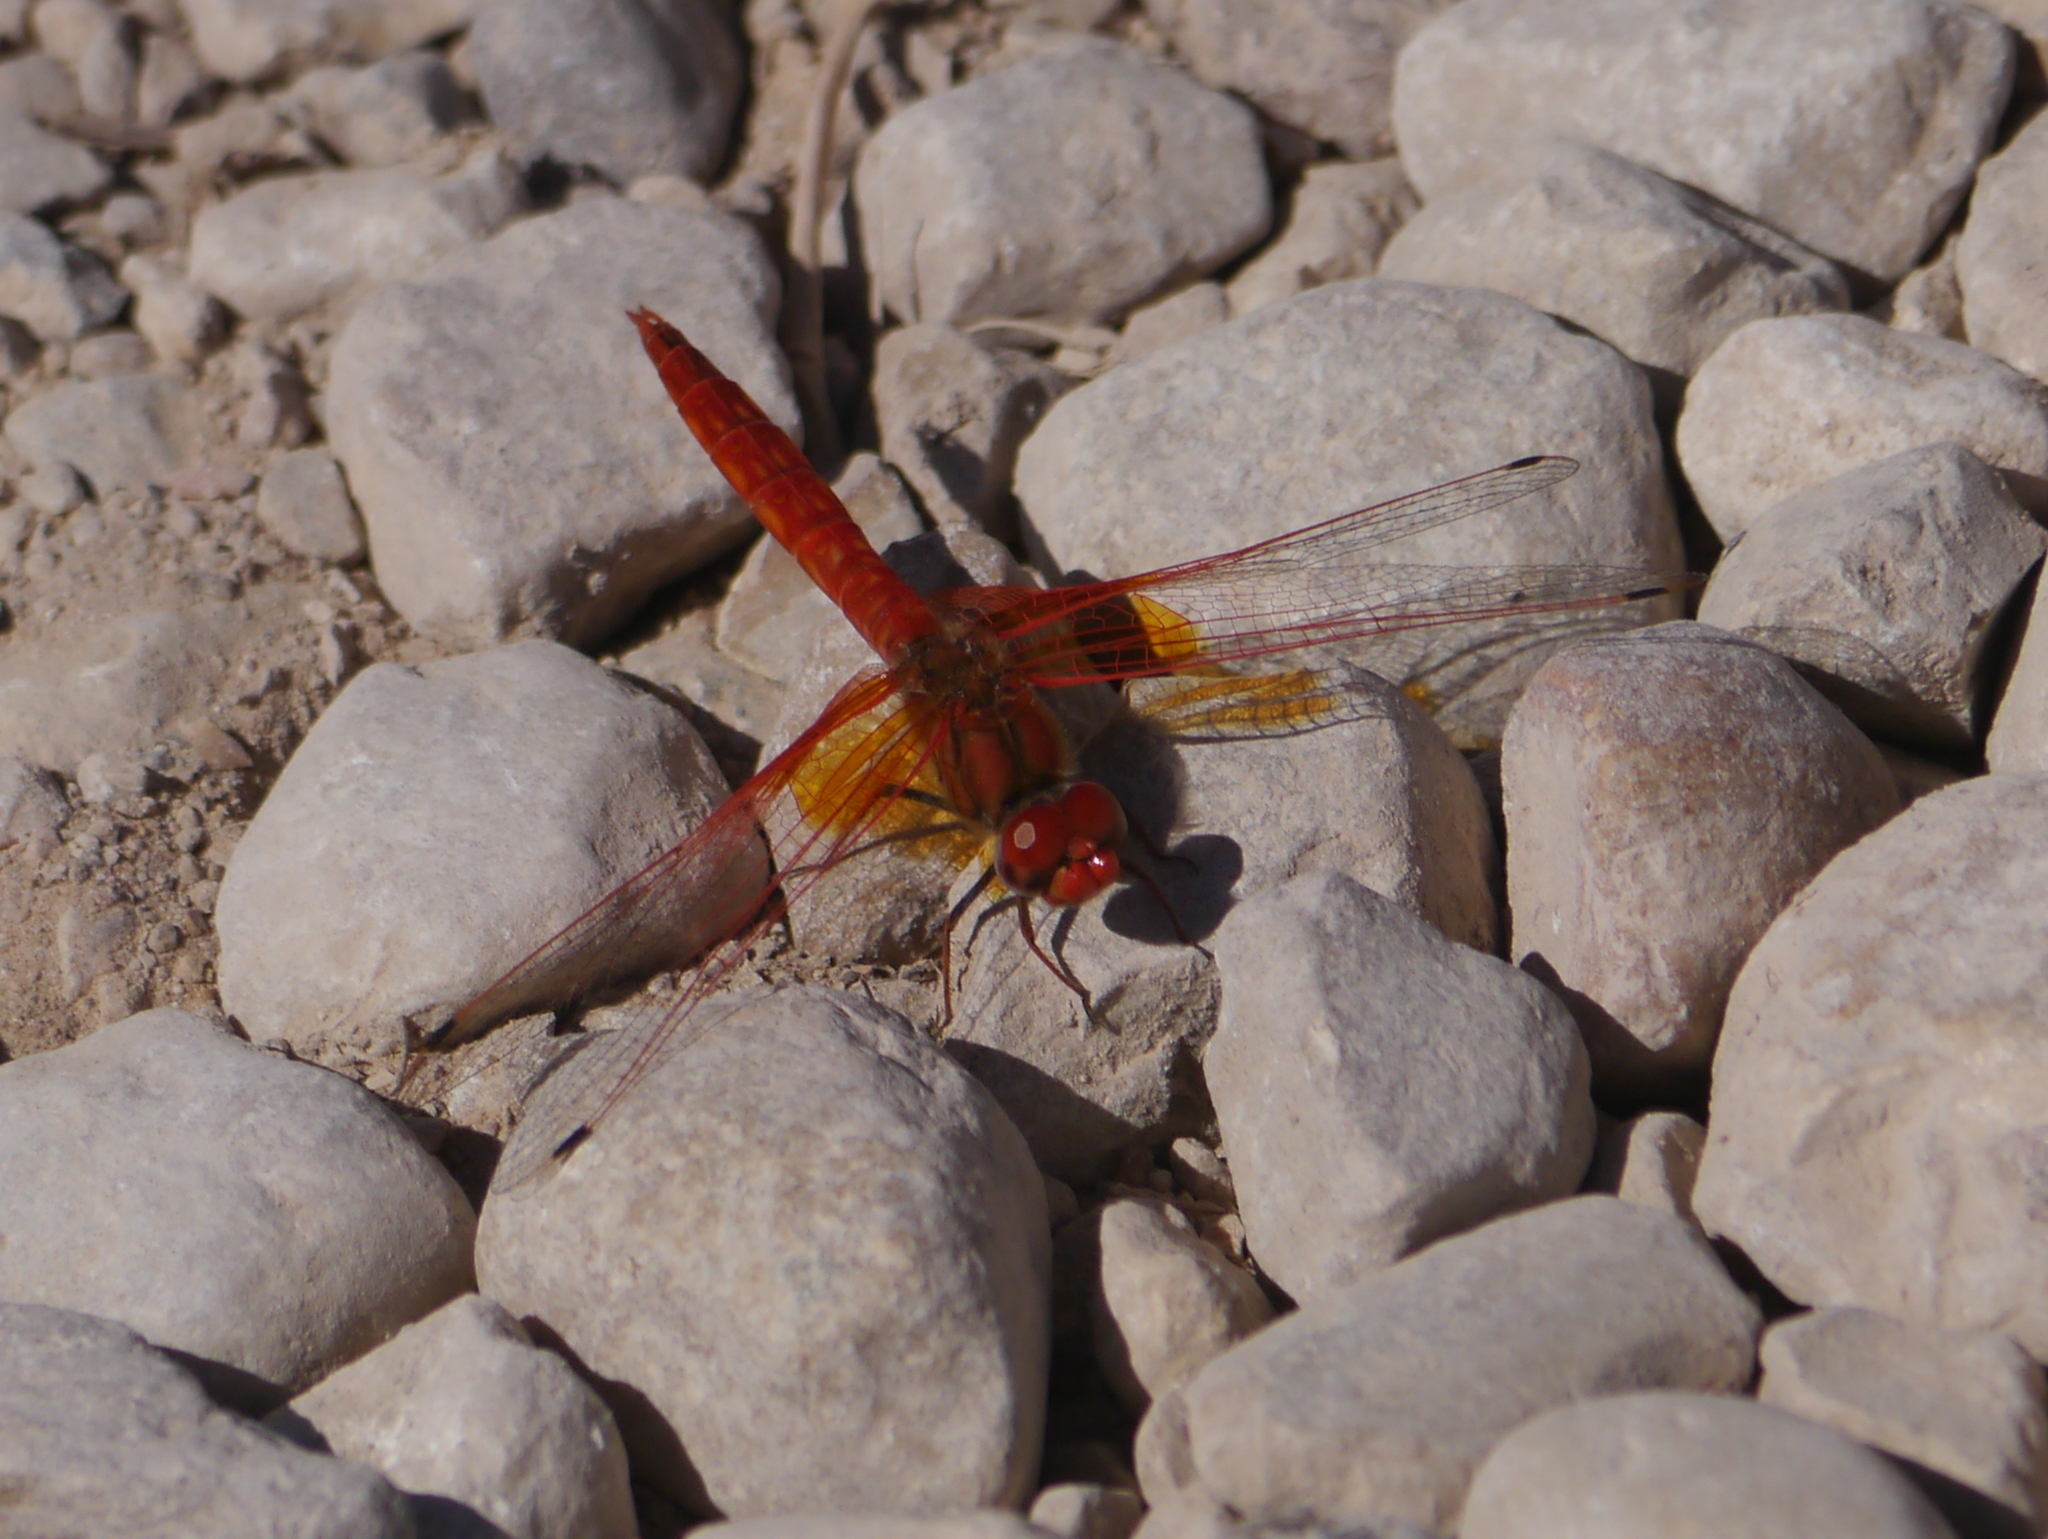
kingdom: Animalia
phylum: Arthropoda
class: Insecta
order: Odonata
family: Libellulidae
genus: Trithemis
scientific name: Trithemis kirbyi
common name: Kirby's dropwing
